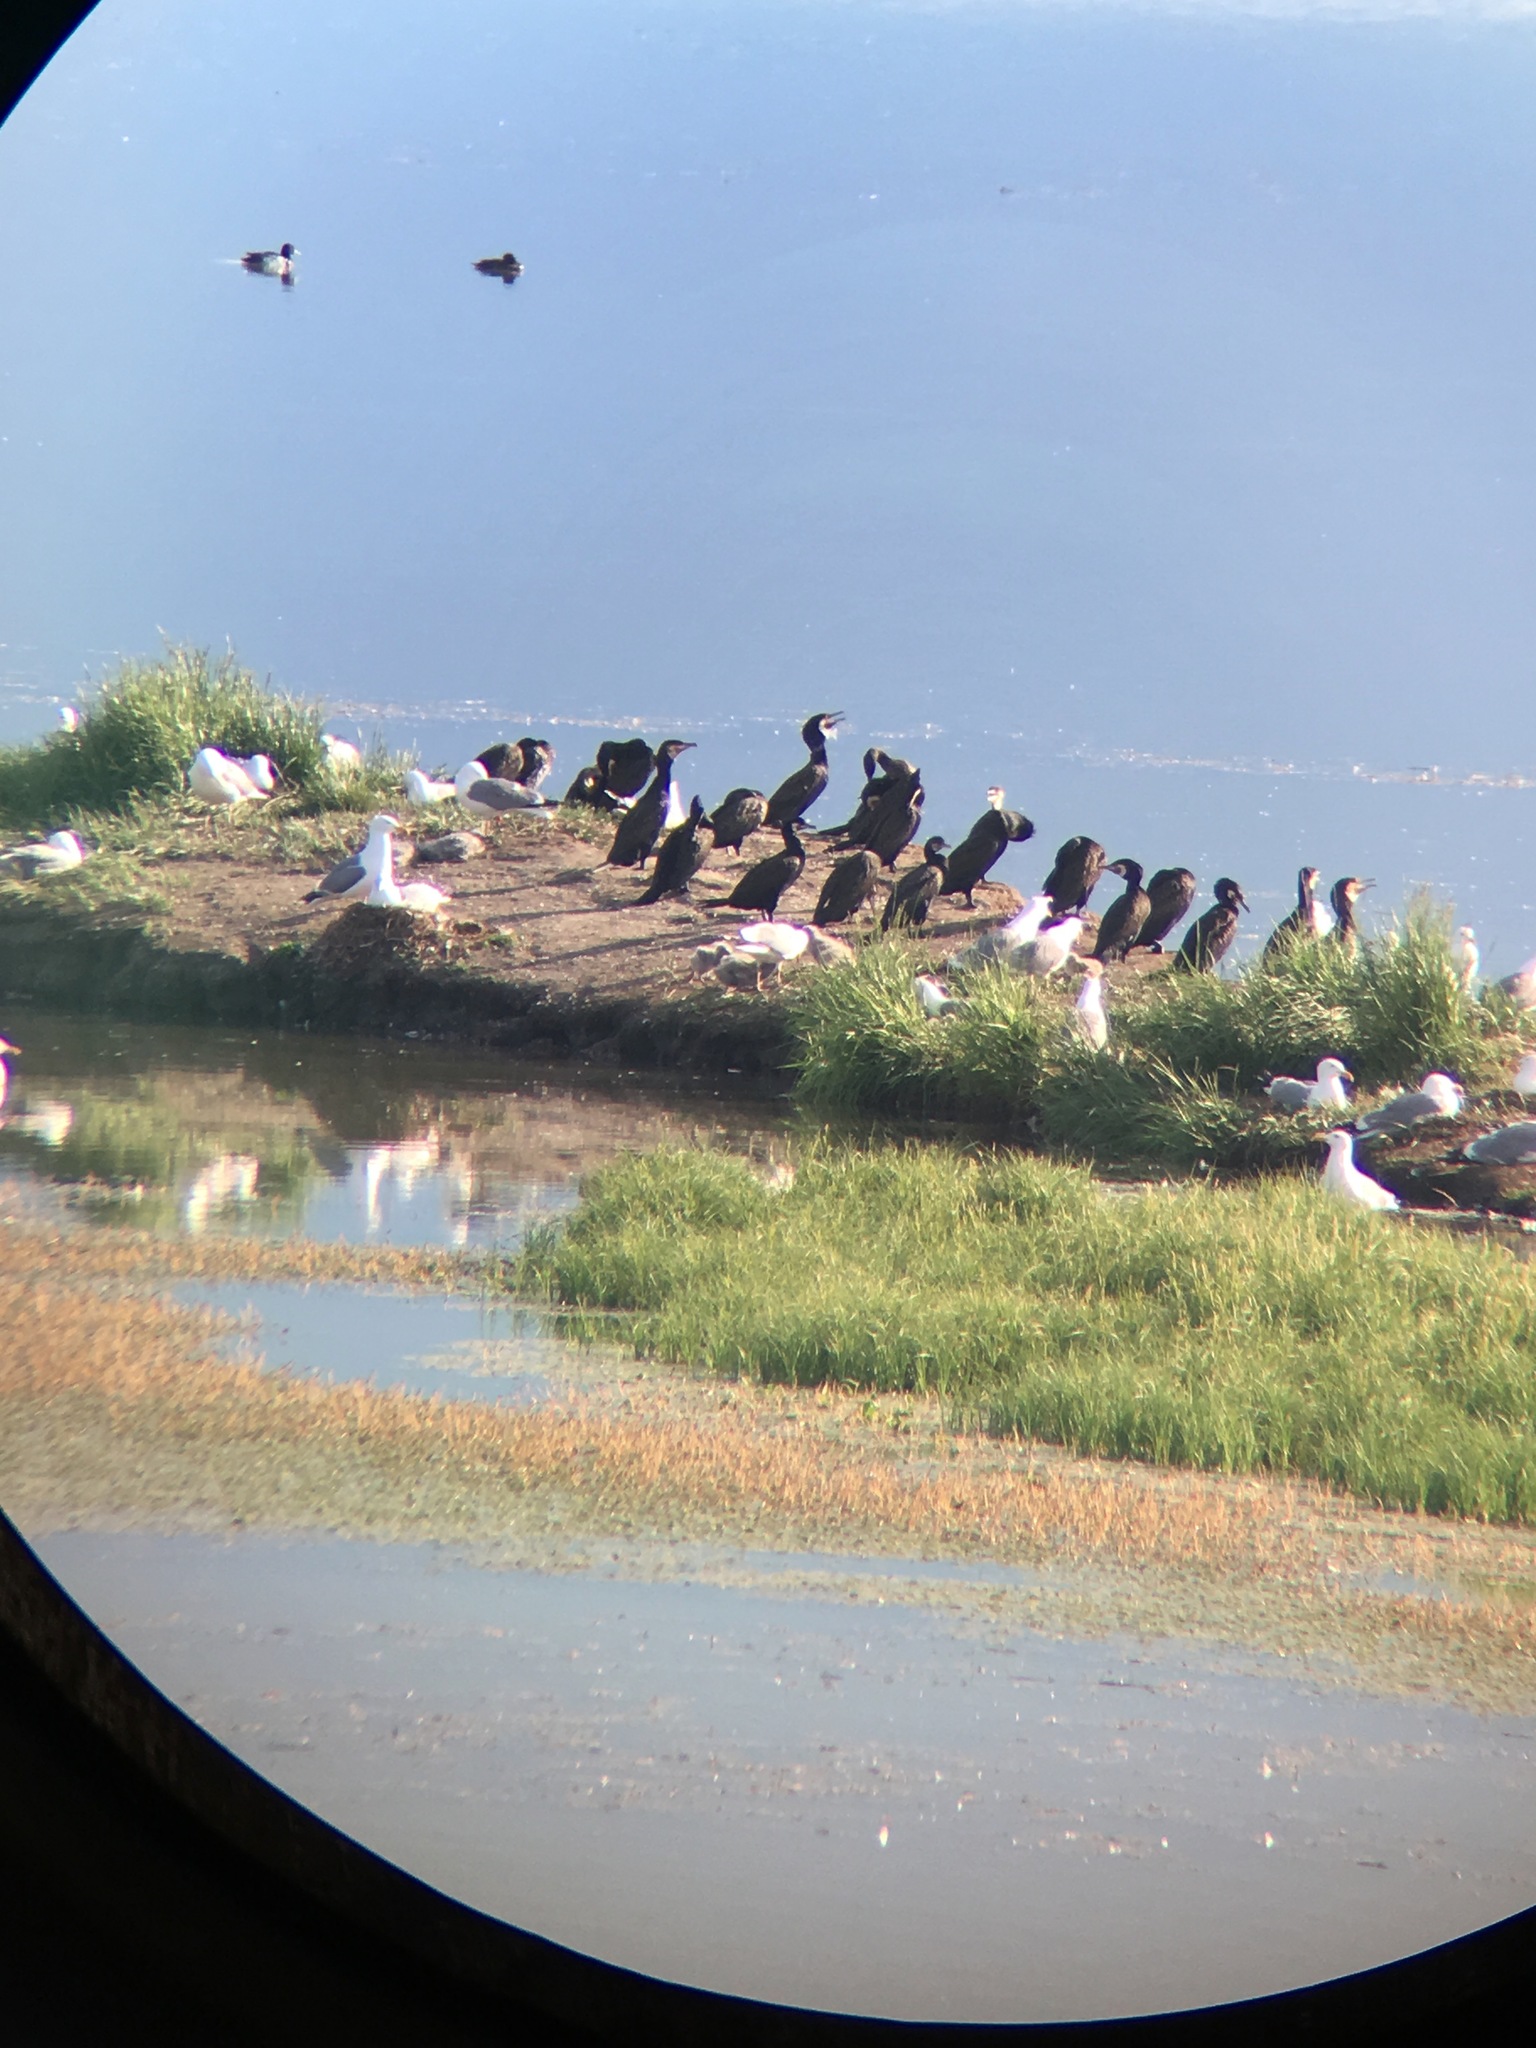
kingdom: Animalia
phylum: Chordata
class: Aves
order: Suliformes
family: Phalacrocoracidae
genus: Phalacrocorax
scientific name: Phalacrocorax carbo
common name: Great cormorant
